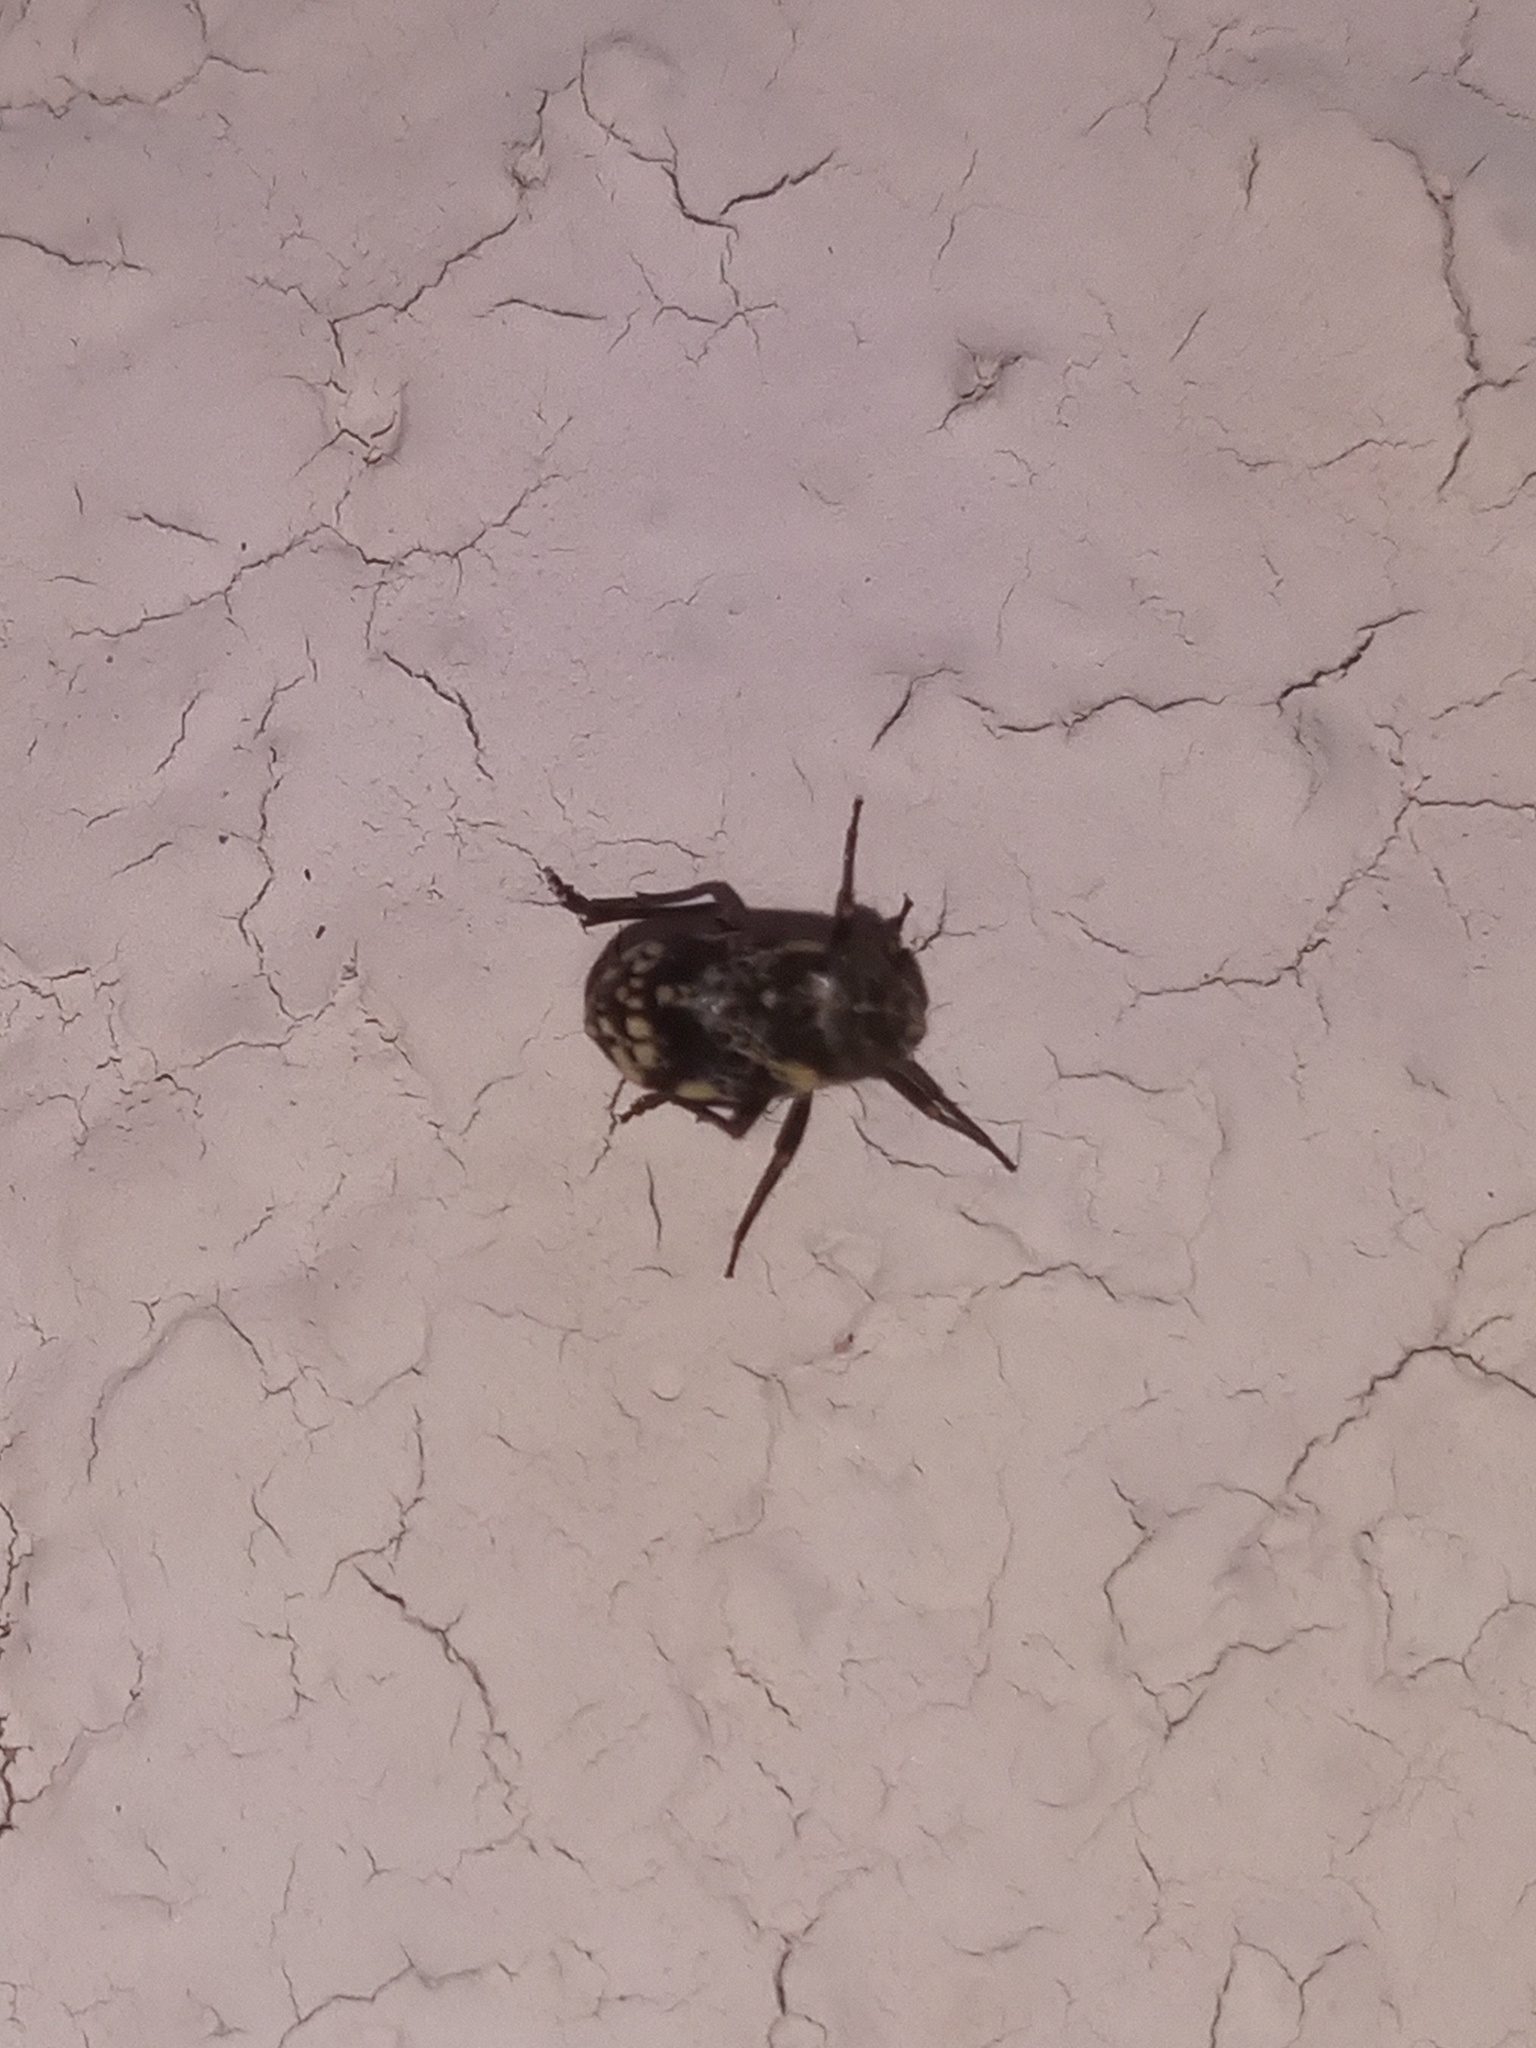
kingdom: Animalia
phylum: Arthropoda
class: Insecta
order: Hemiptera
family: Caliscelidae
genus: Bruchomorpha
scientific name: Bruchomorpha decorata
